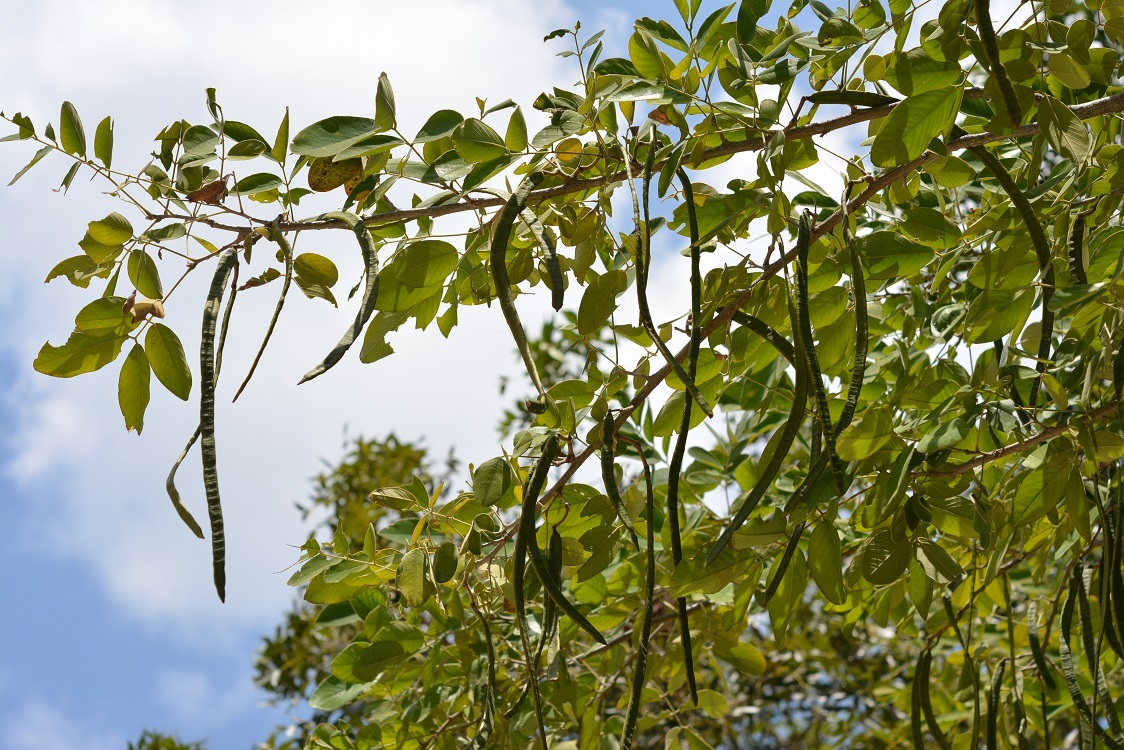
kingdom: Plantae
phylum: Tracheophyta
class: Magnoliopsida
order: Fabales
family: Fabaceae
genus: Senna
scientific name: Senna atomaria
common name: Flor de san jose
